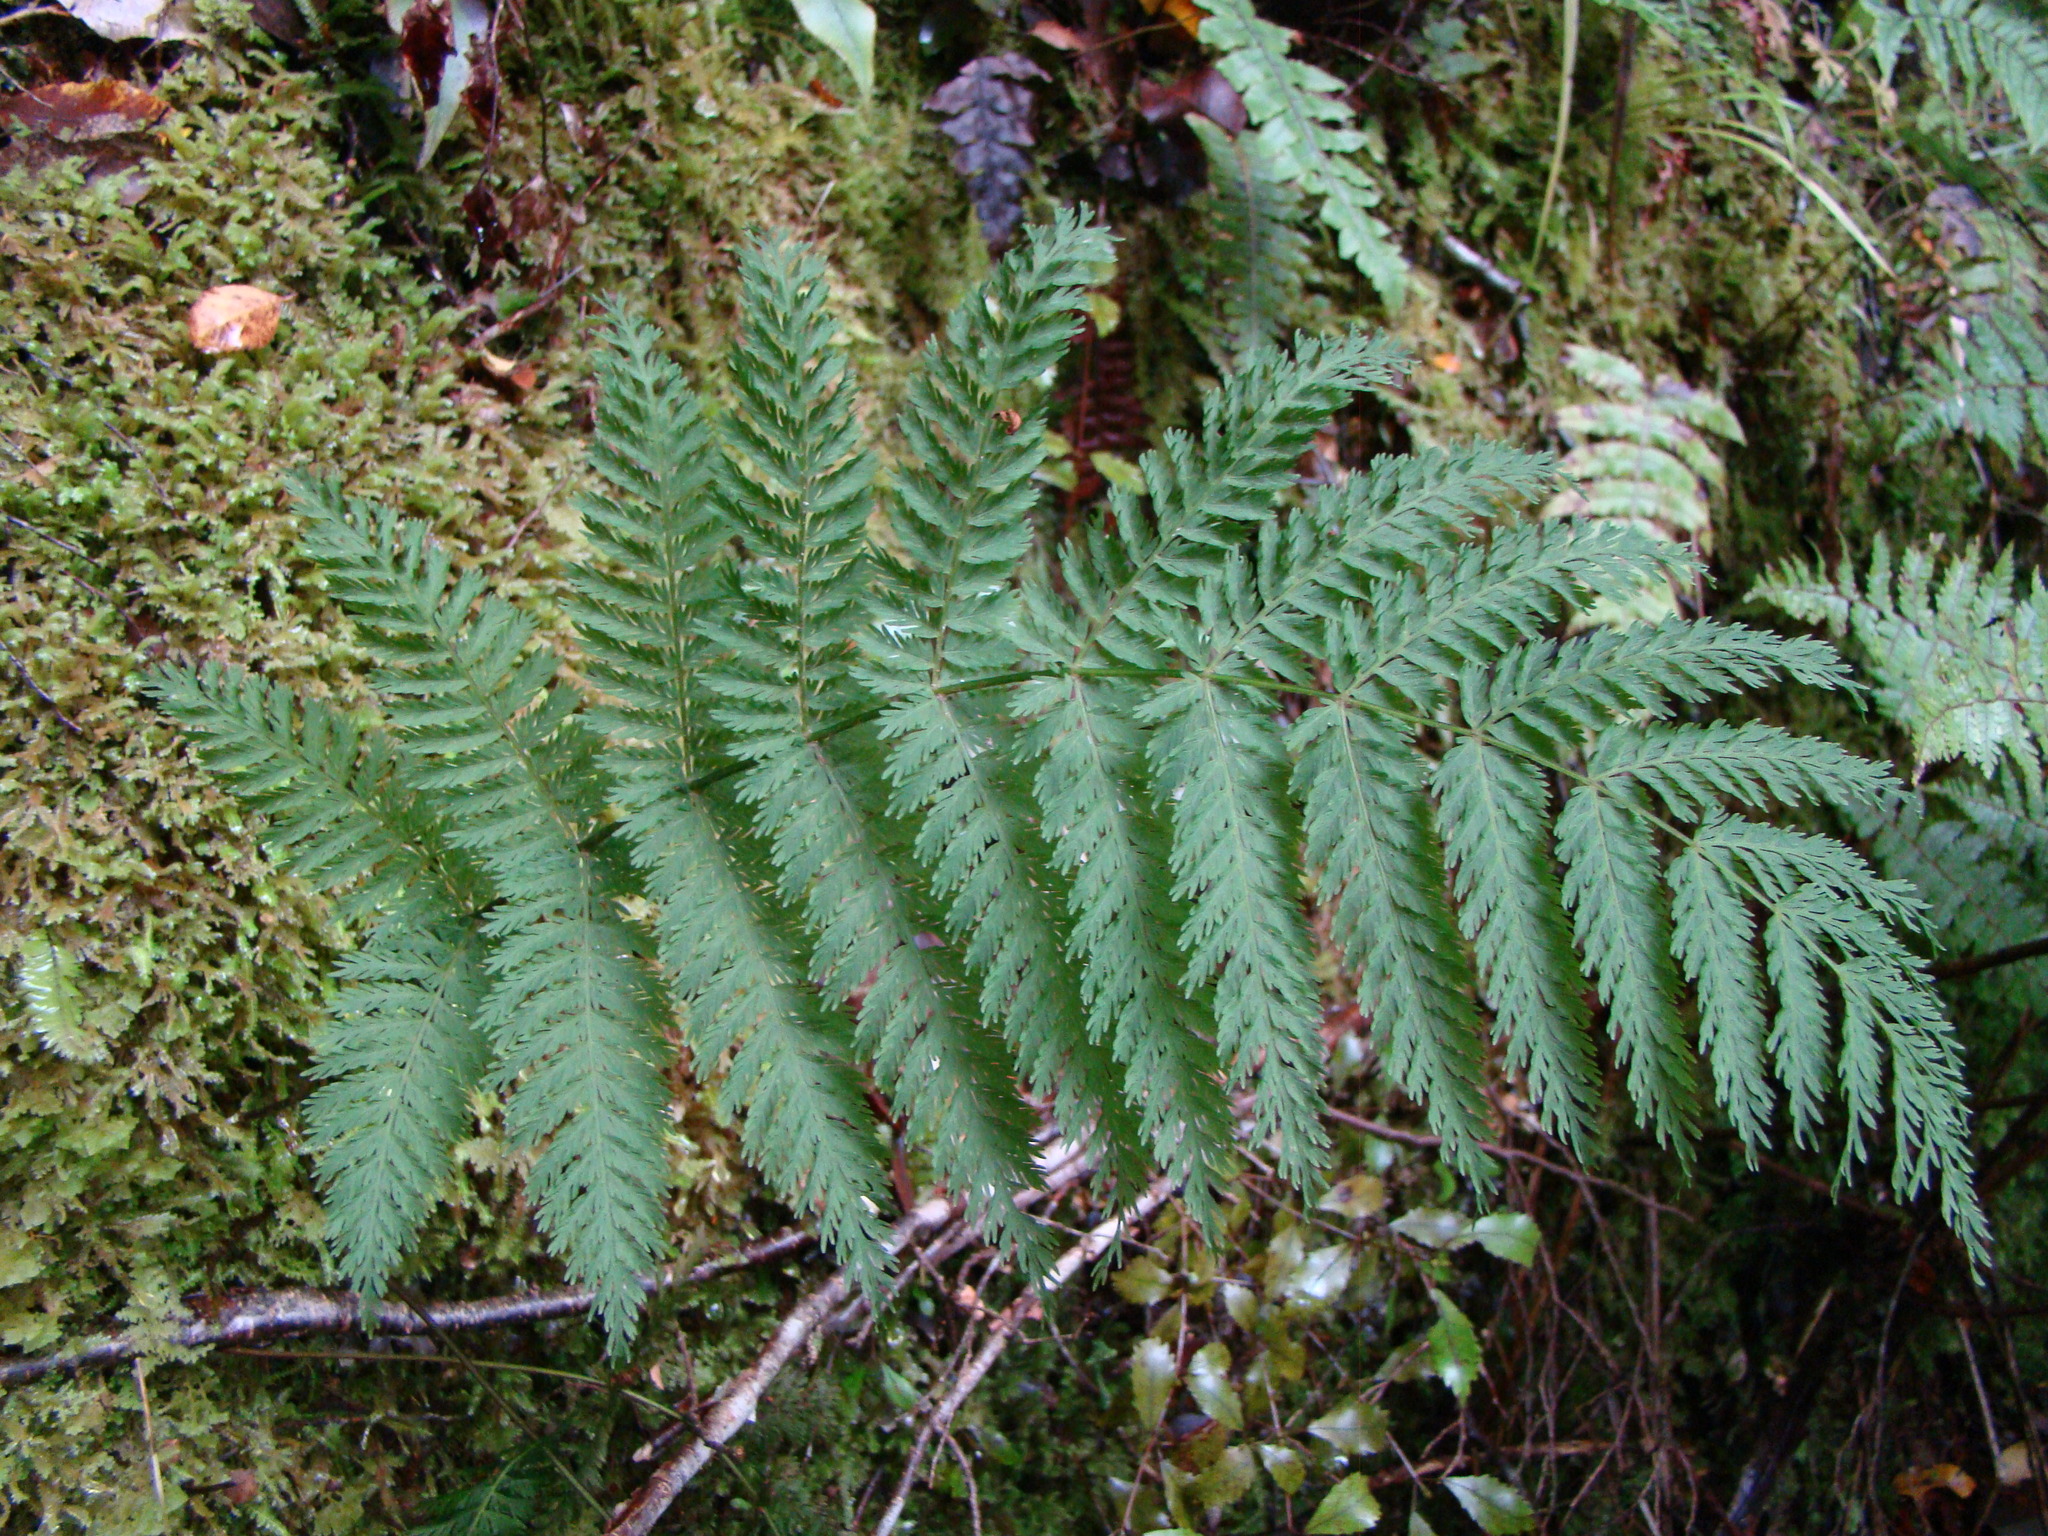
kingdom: Plantae
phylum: Tracheophyta
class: Polypodiopsida
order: Osmundales
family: Osmundaceae
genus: Leptopteris
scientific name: Leptopteris hymenophylloides
